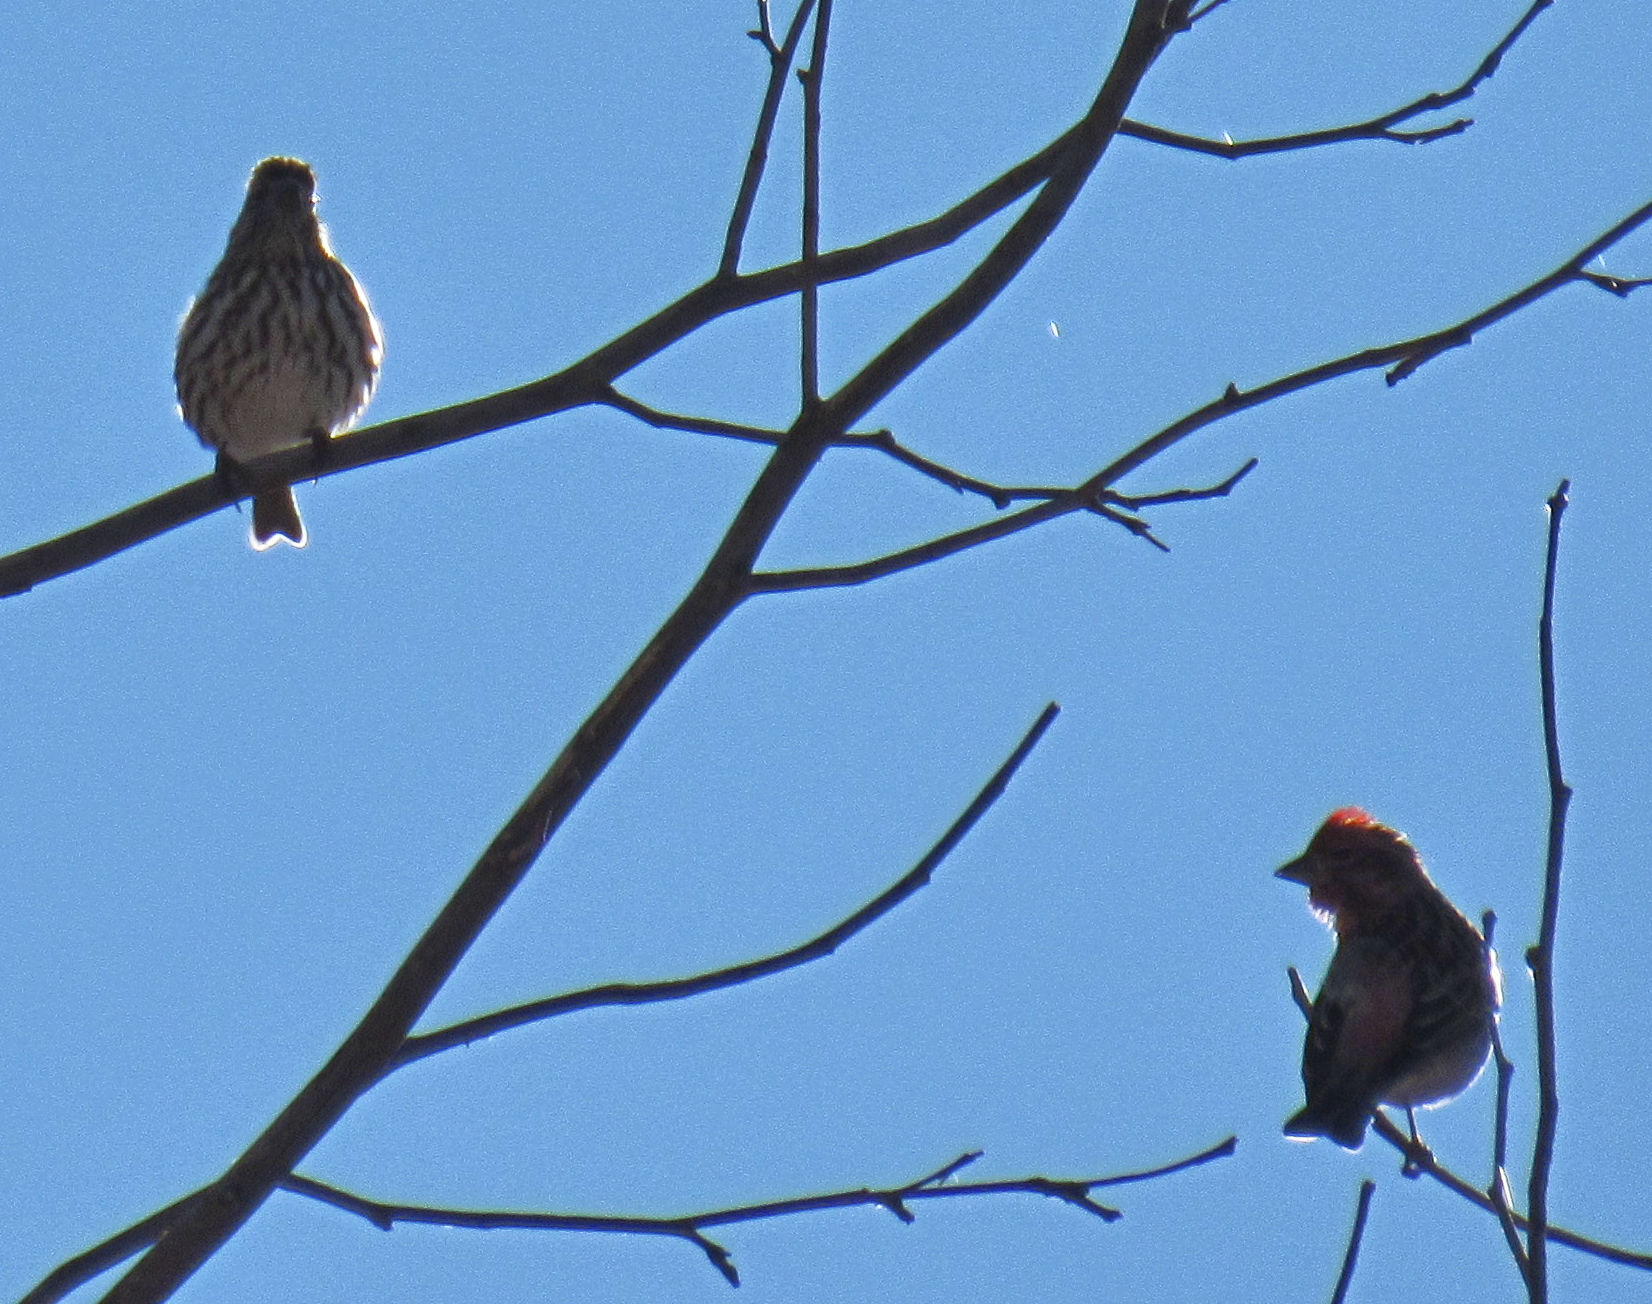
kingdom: Animalia
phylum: Chordata
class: Aves
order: Passeriformes
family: Fringillidae
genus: Haemorhous
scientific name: Haemorhous cassinii
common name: Cassin's finch
